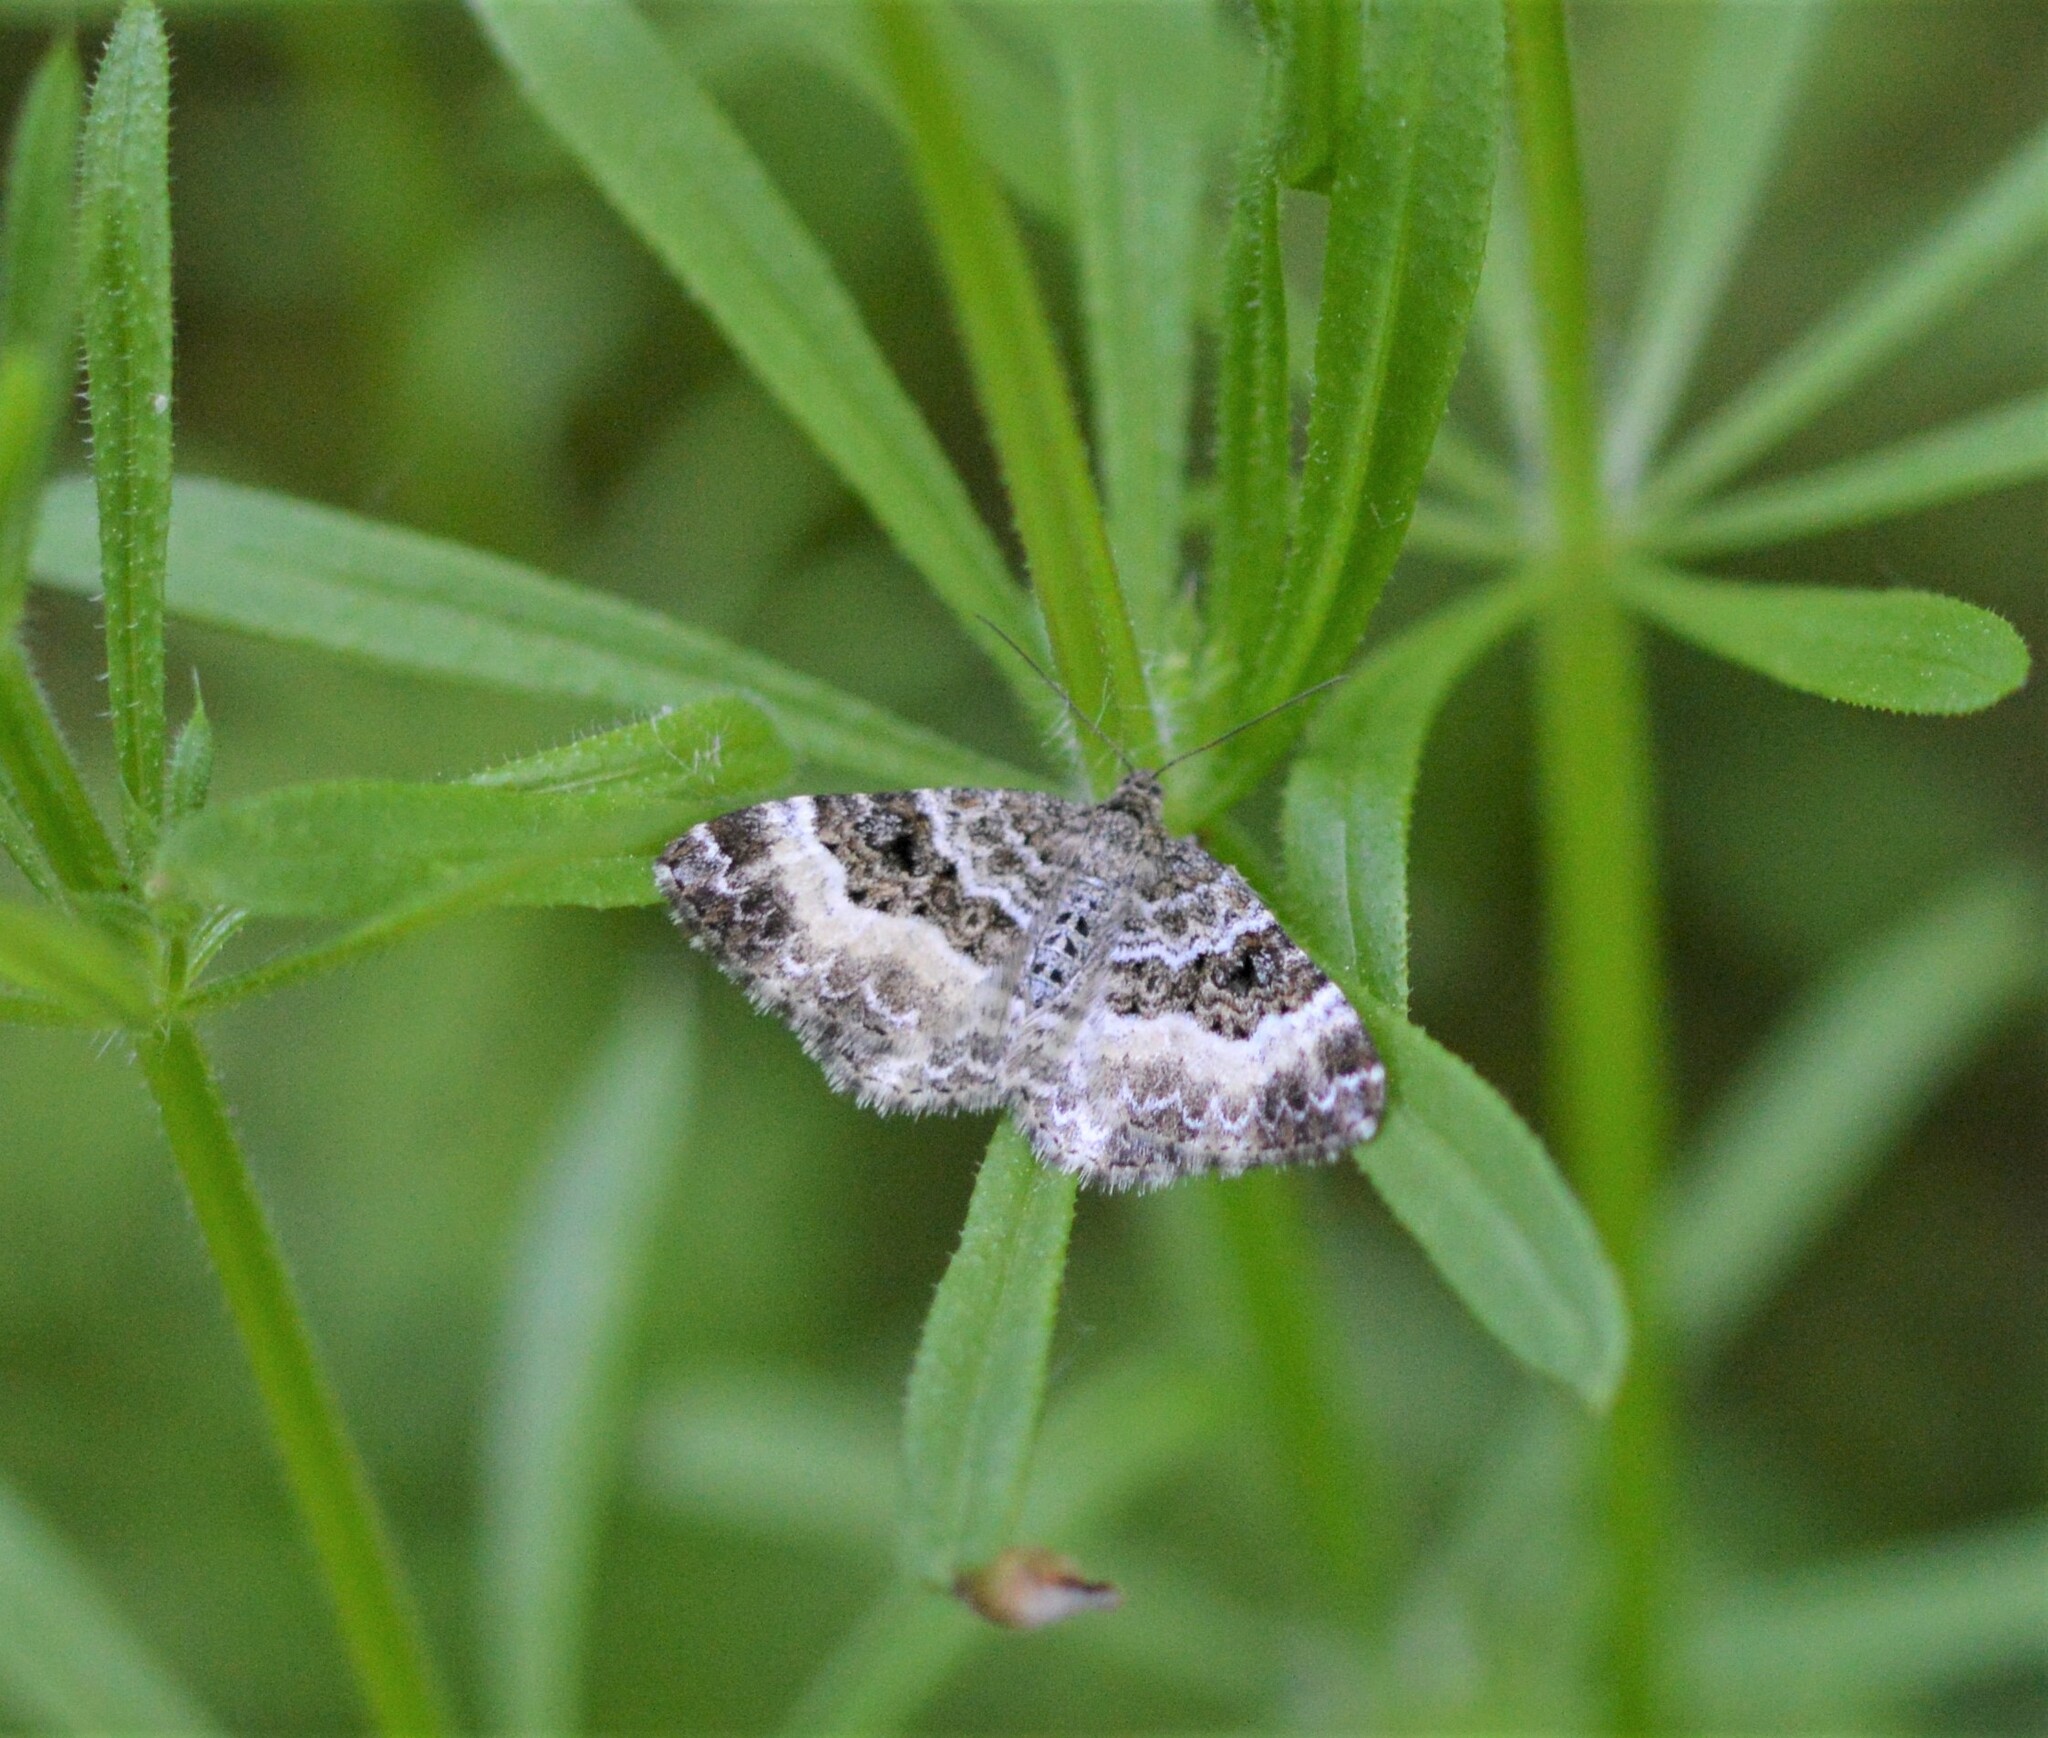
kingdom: Animalia
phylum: Arthropoda
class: Insecta
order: Lepidoptera
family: Geometridae
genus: Epirrhoe
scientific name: Epirrhoe alternata
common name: Common carpet
